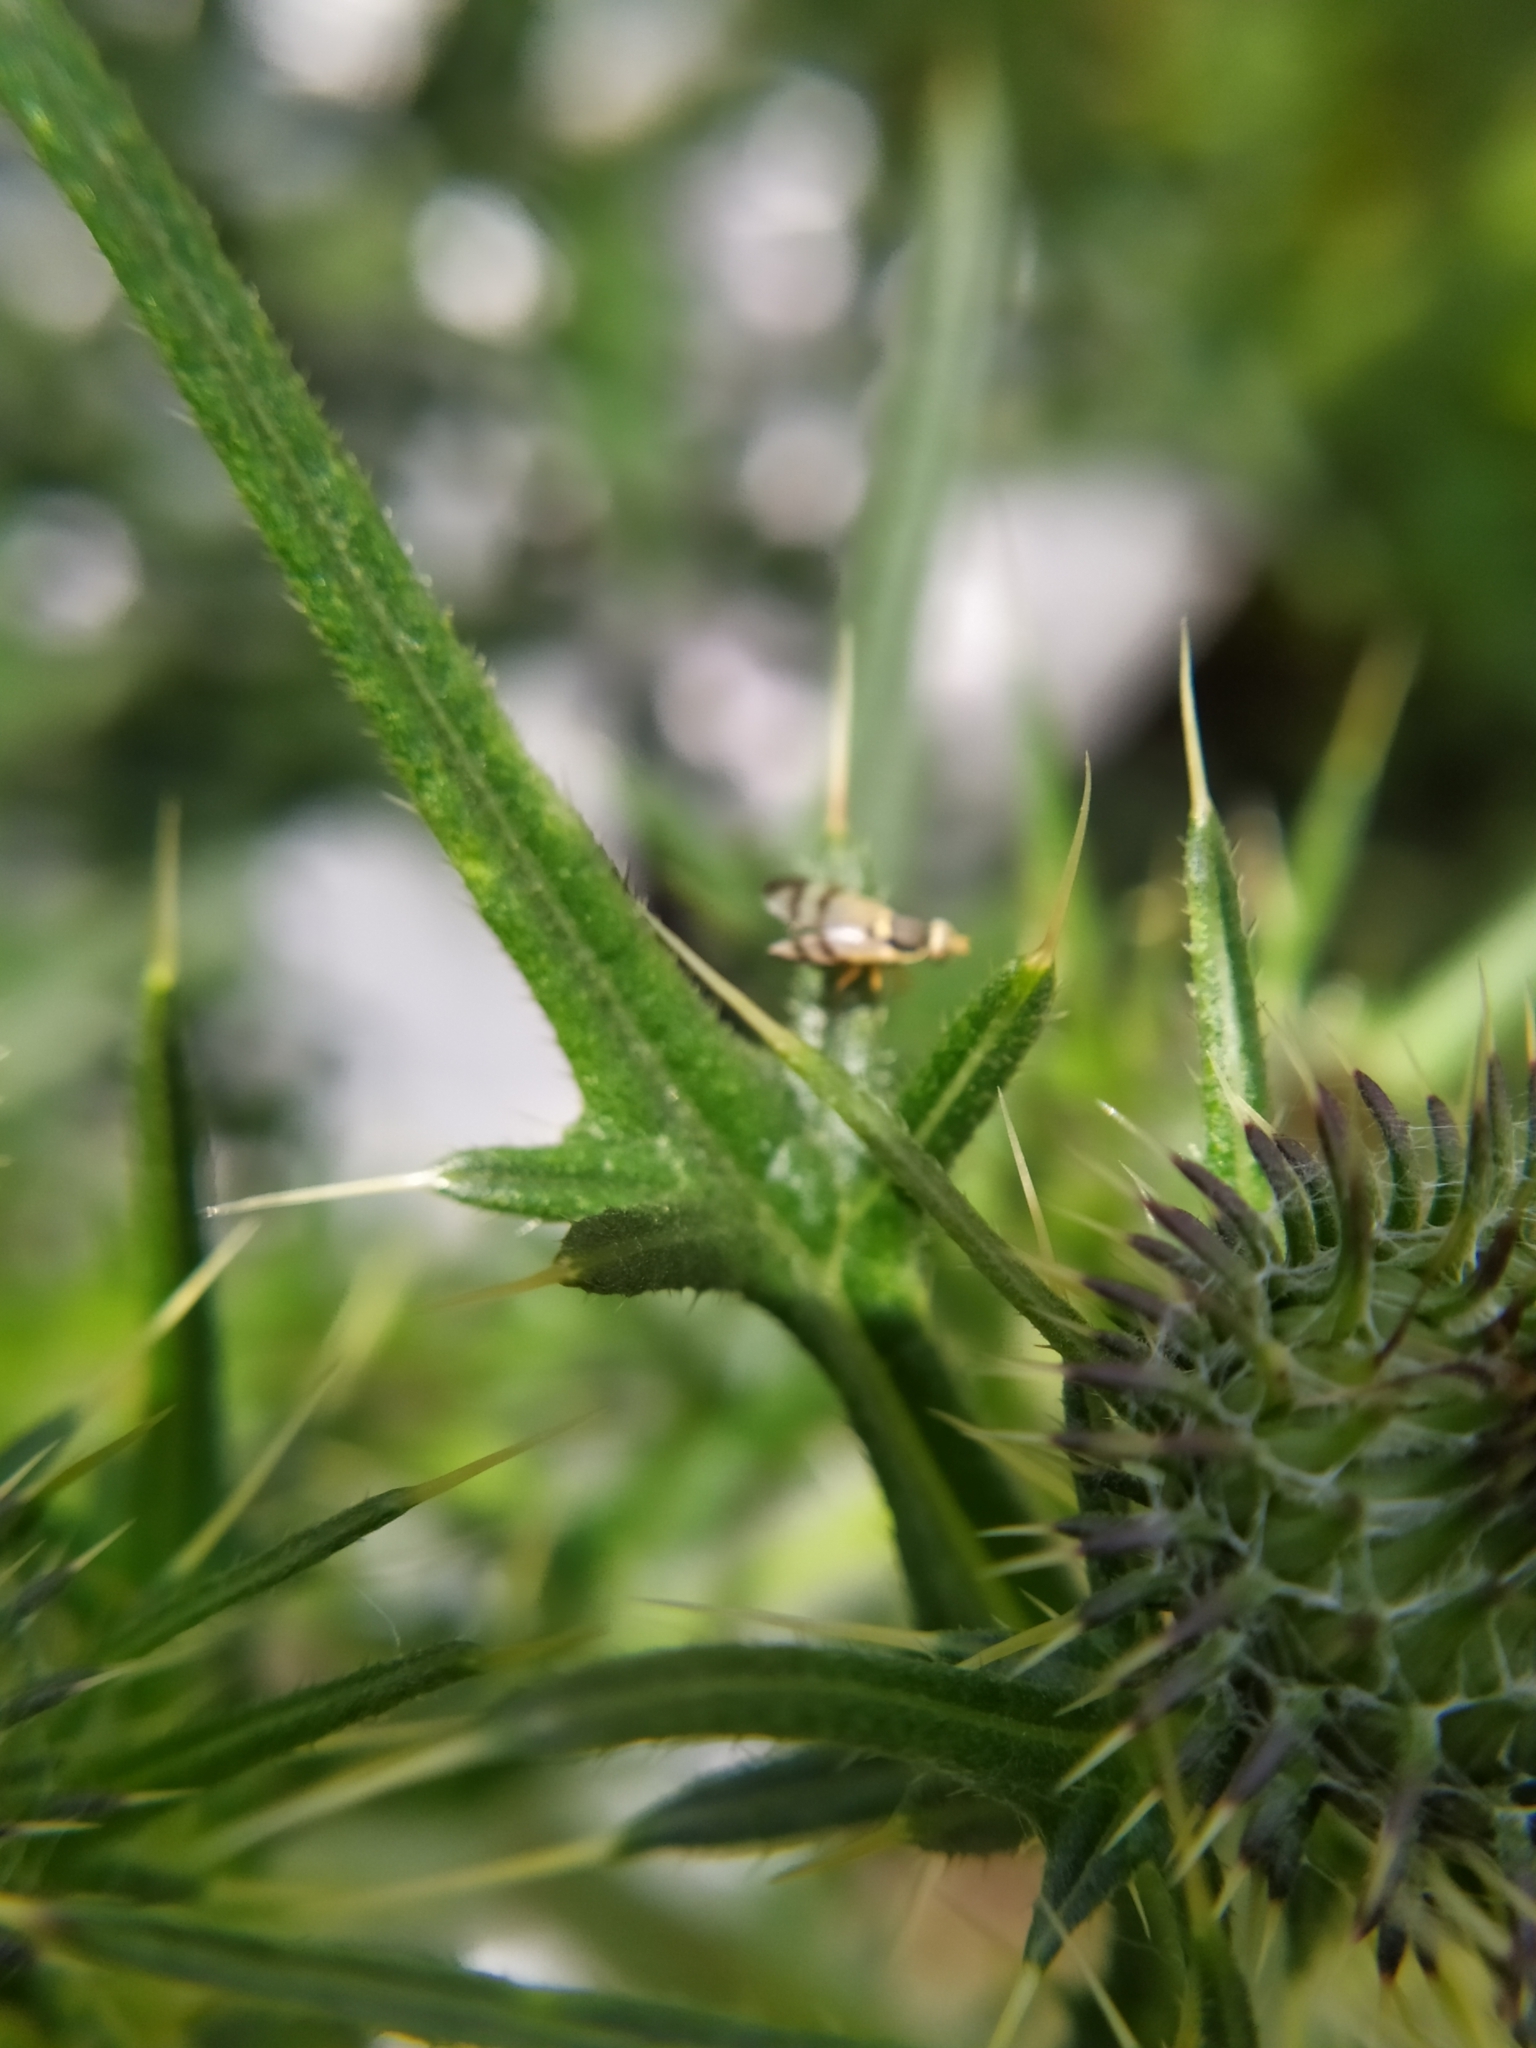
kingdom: Plantae
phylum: Tracheophyta
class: Magnoliopsida
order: Asterales
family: Asteraceae
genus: Cirsium
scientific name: Cirsium vulgare
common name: Bull thistle
